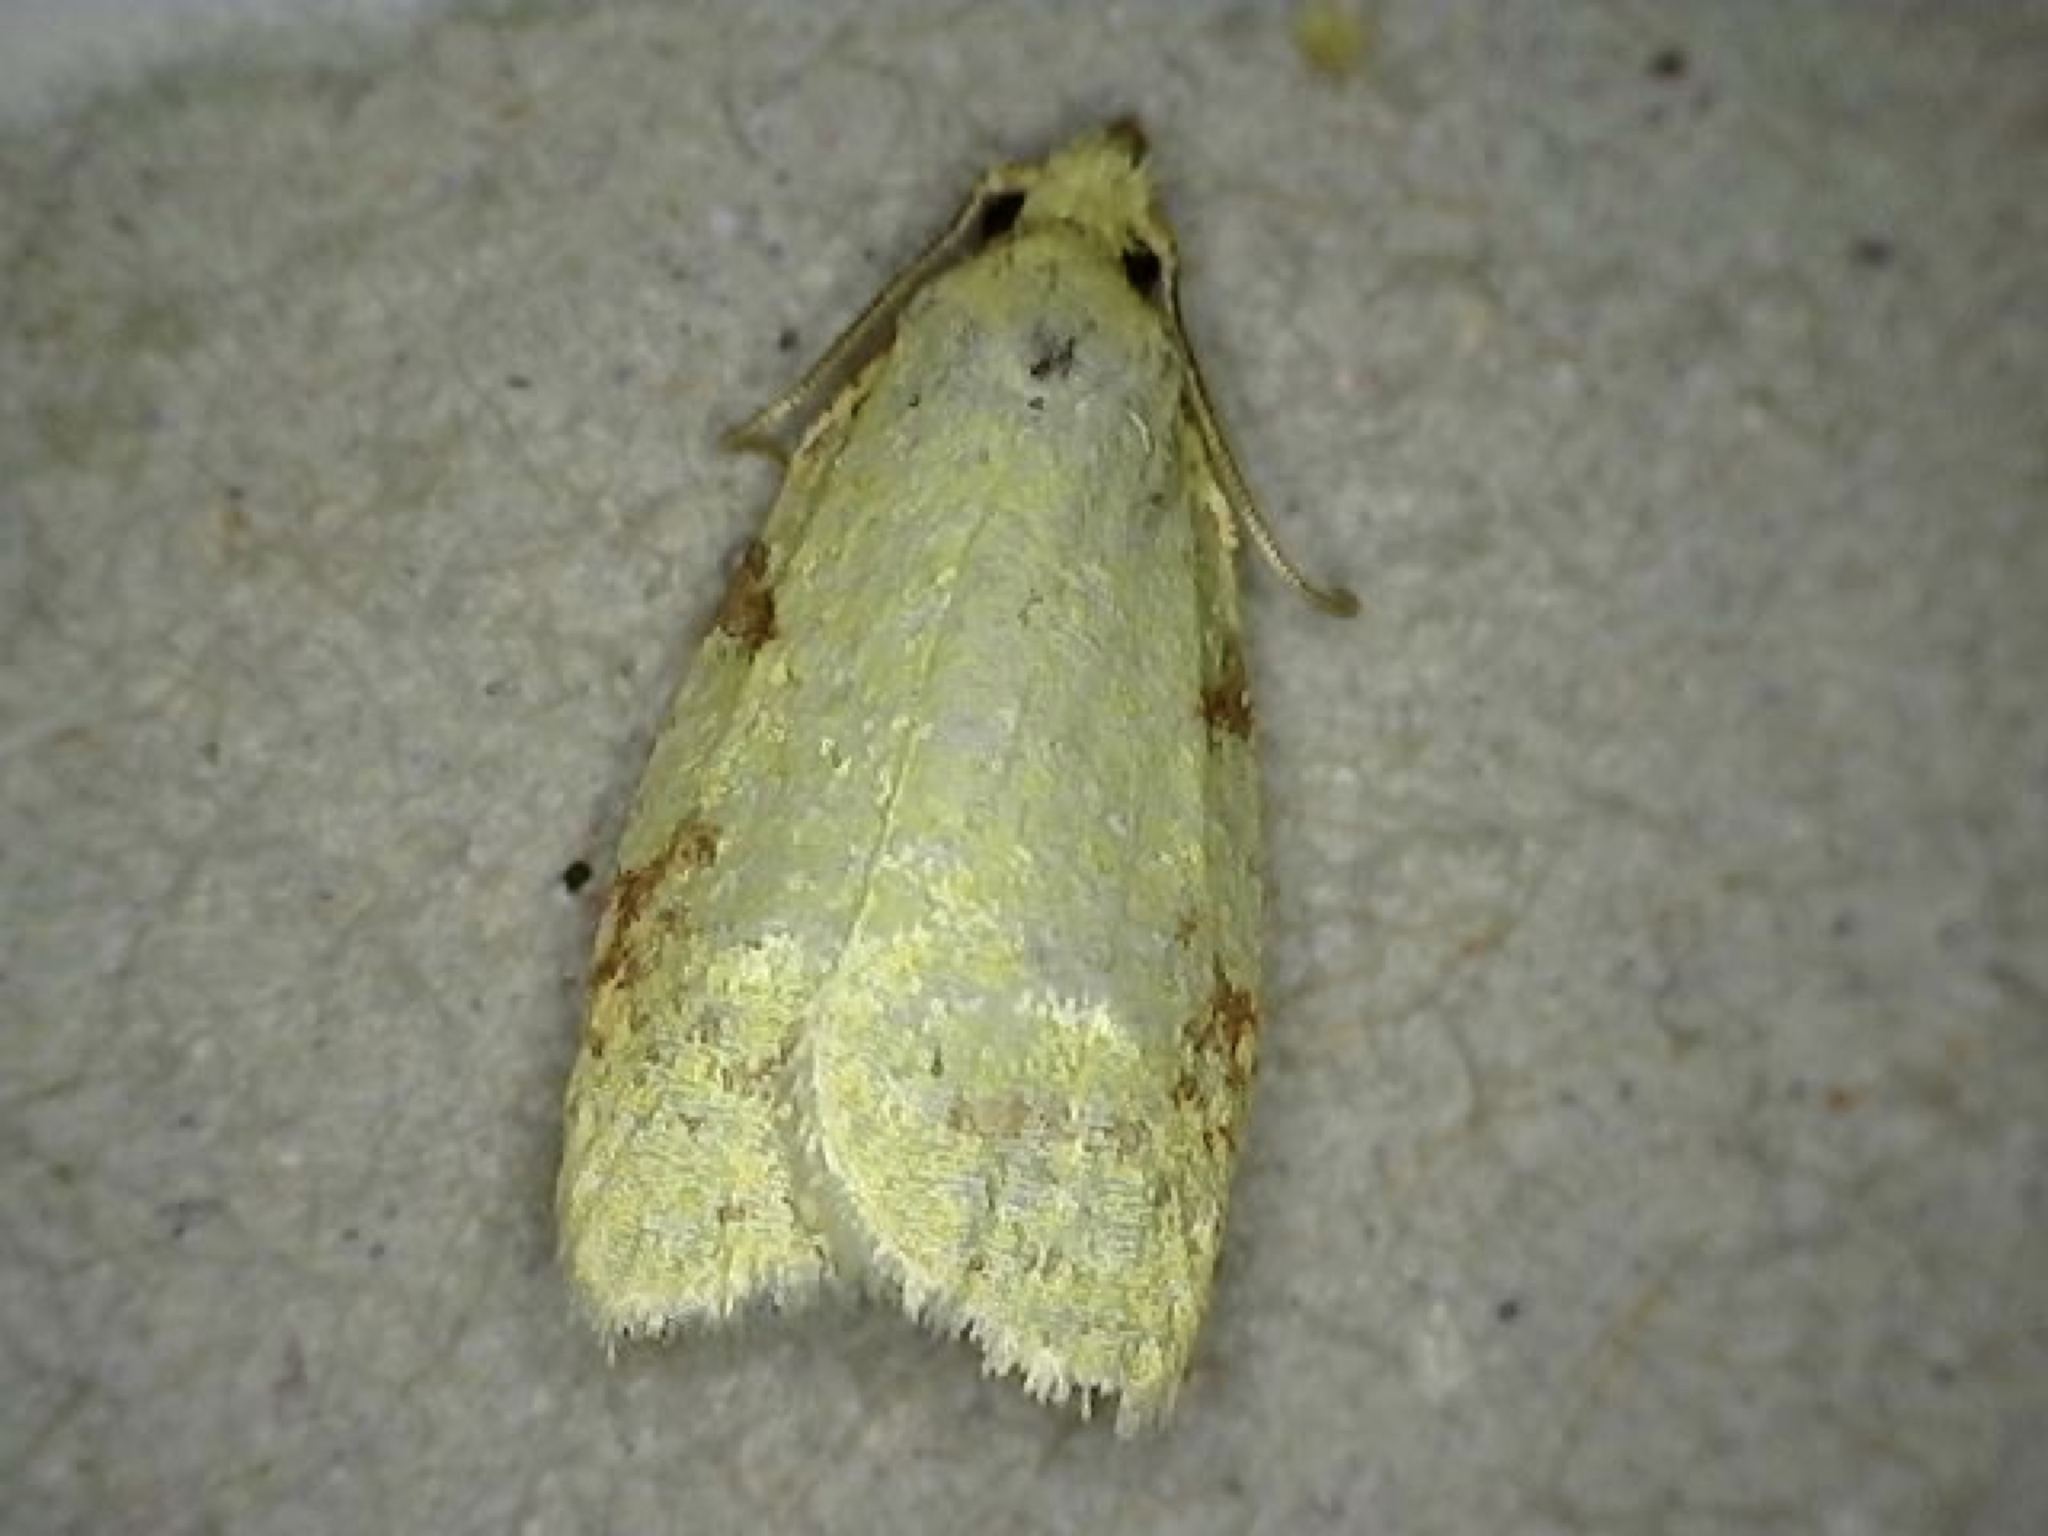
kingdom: Animalia
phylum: Arthropoda
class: Insecta
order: Lepidoptera
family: Tortricidae
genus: Cenopis
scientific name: Cenopis pettitana
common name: Maple-basswood leafroller moth
